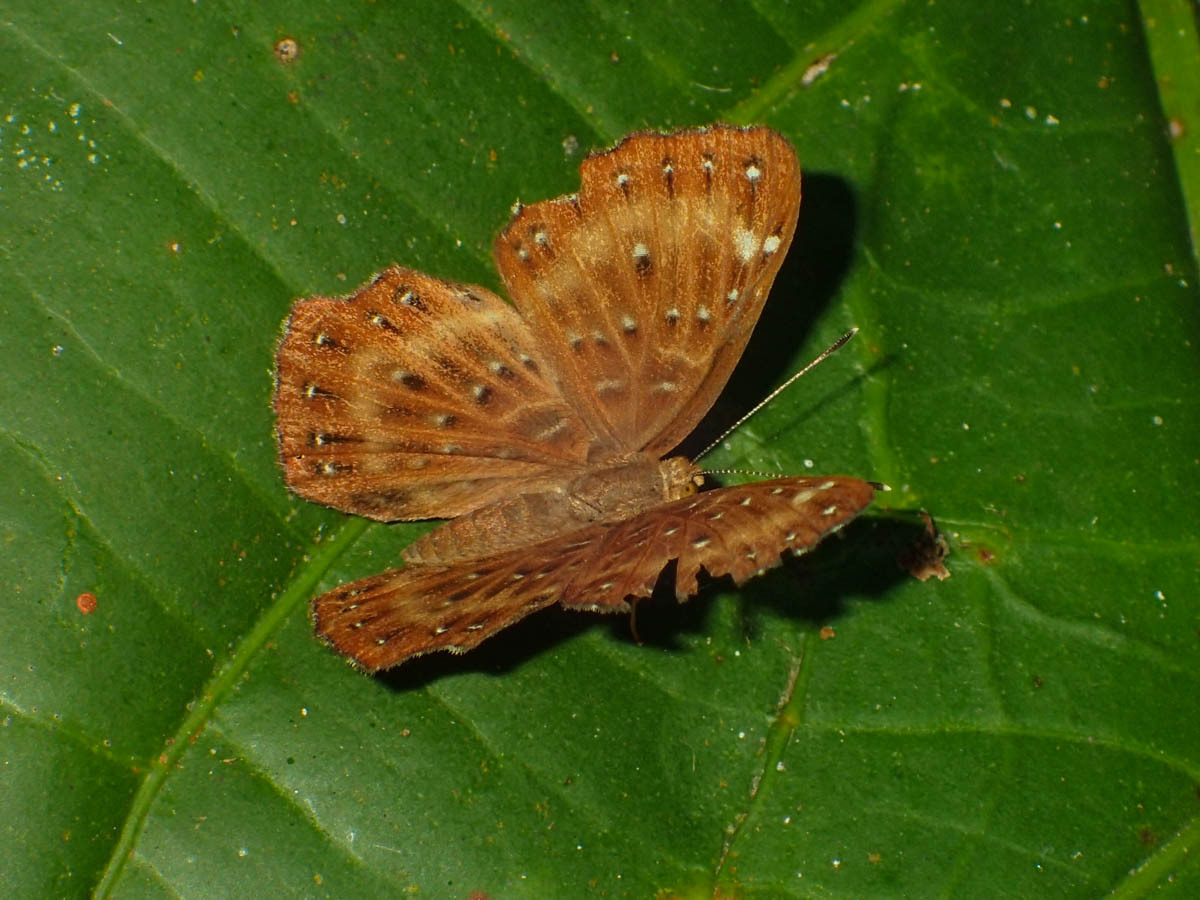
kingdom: Animalia
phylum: Arthropoda
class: Insecta
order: Lepidoptera
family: Riodinidae
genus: Zemeros
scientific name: Zemeros flegyas
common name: Punchinello
